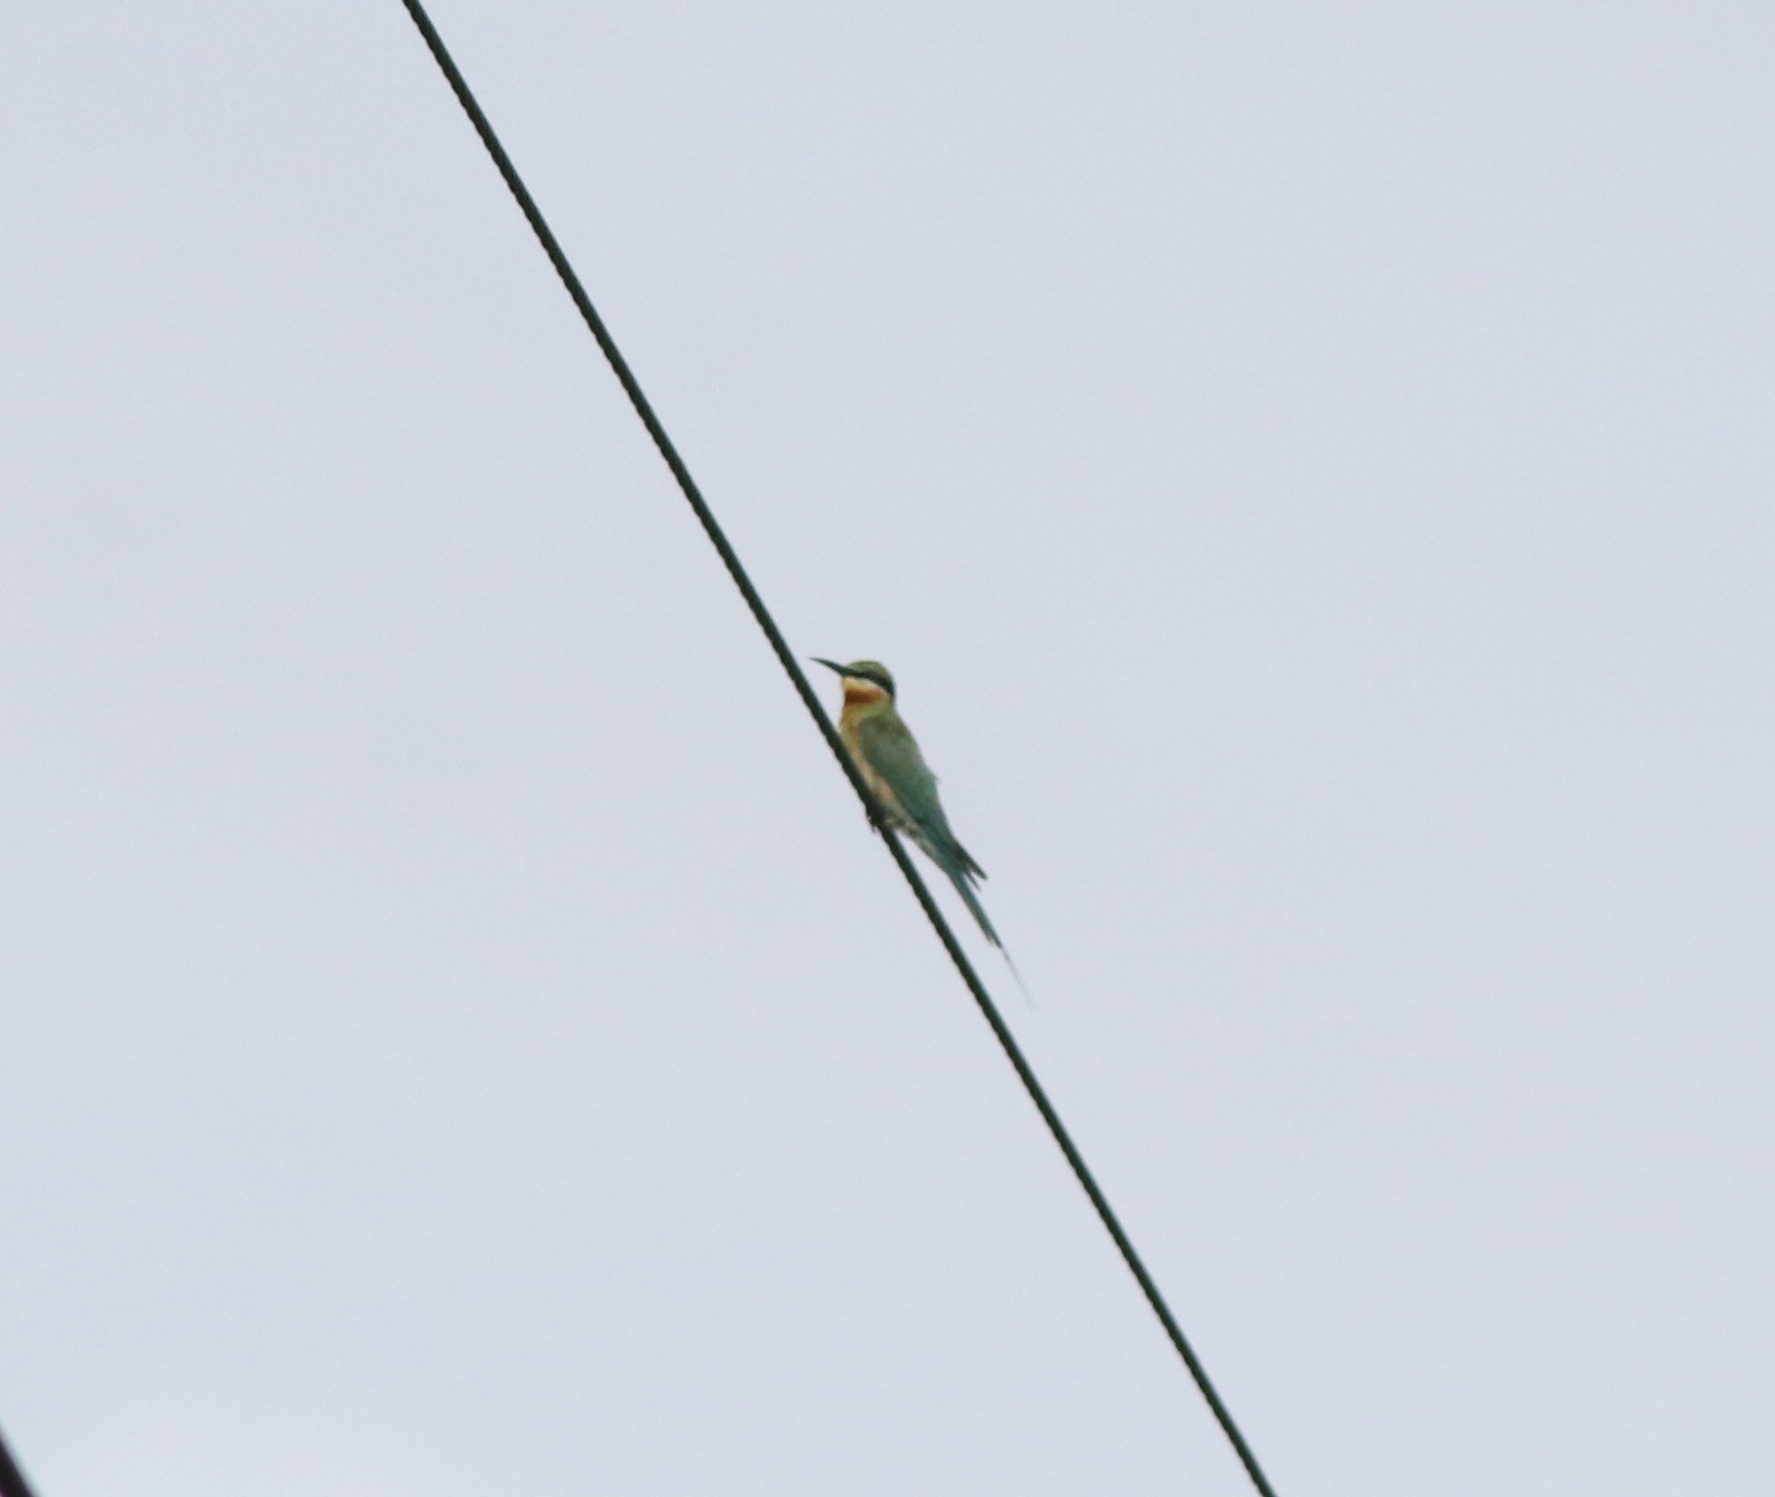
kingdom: Animalia
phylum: Chordata
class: Aves
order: Coraciiformes
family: Meropidae
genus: Merops
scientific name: Merops philippinus
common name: Blue-tailed bee-eater
